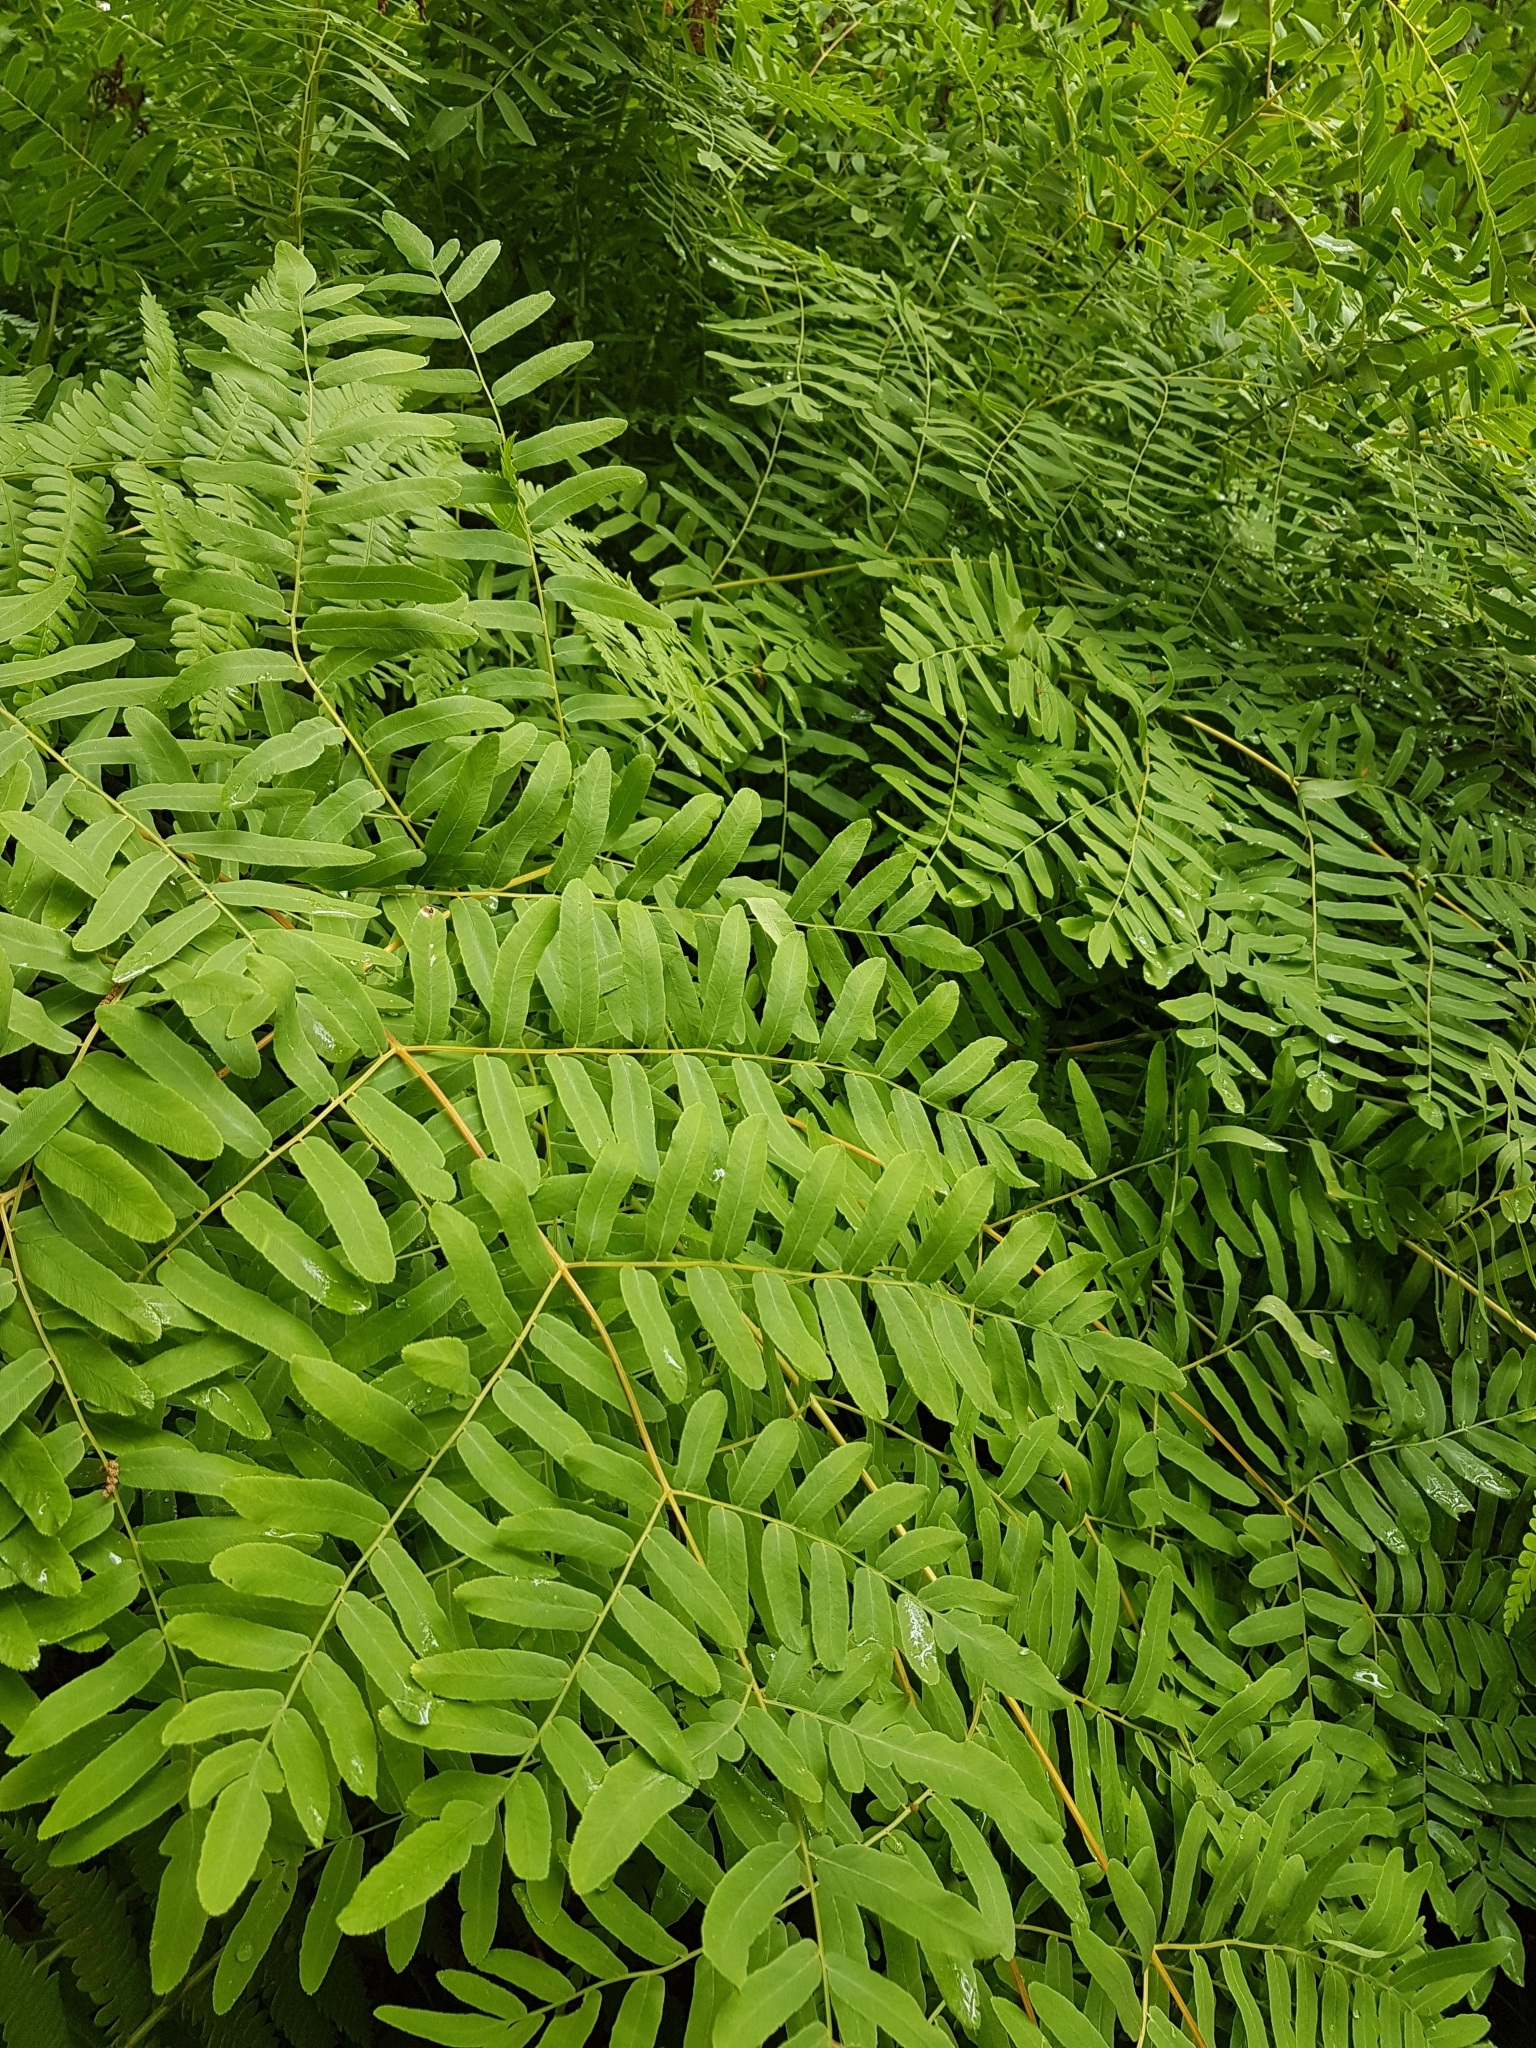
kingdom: Plantae
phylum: Tracheophyta
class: Polypodiopsida
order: Osmundales
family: Osmundaceae
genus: Osmunda
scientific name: Osmunda spectabilis
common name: American royal fern
